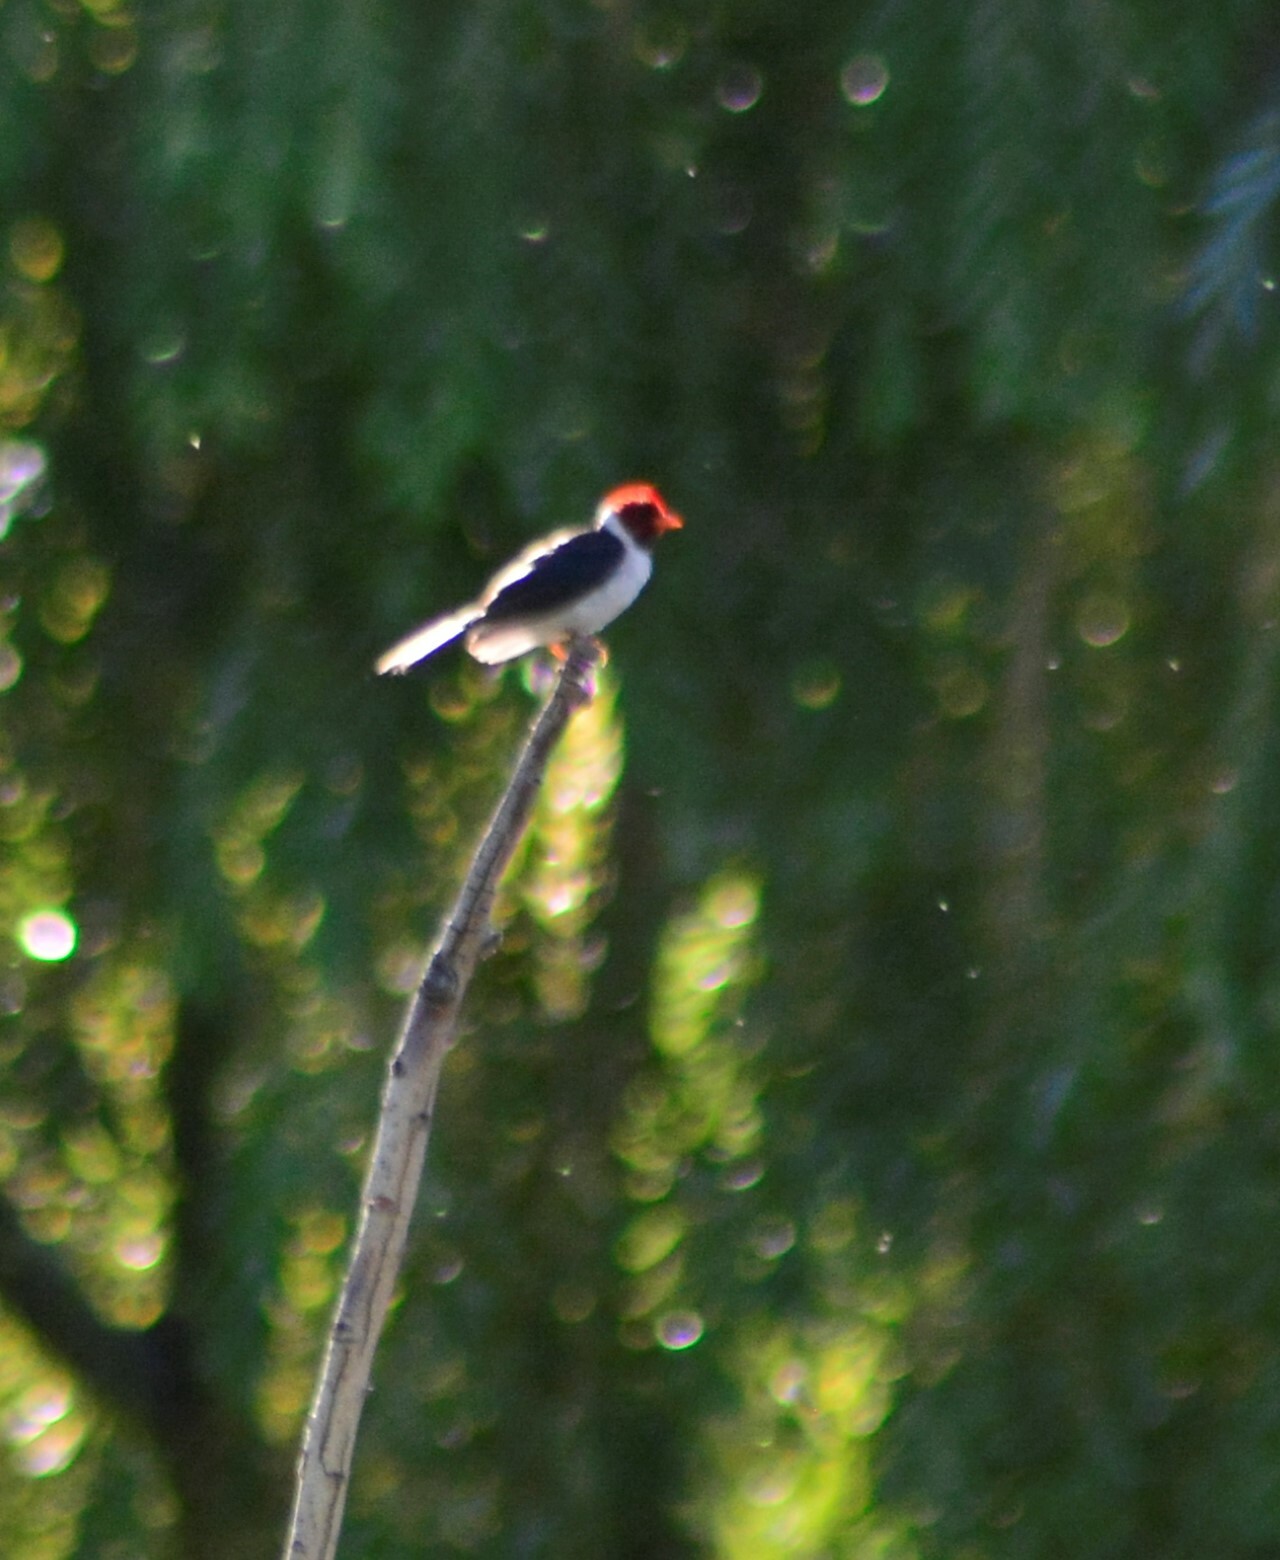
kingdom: Animalia
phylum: Chordata
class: Aves
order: Passeriformes
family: Thraupidae
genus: Paroaria
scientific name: Paroaria capitata
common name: Yellow-billed cardinal
